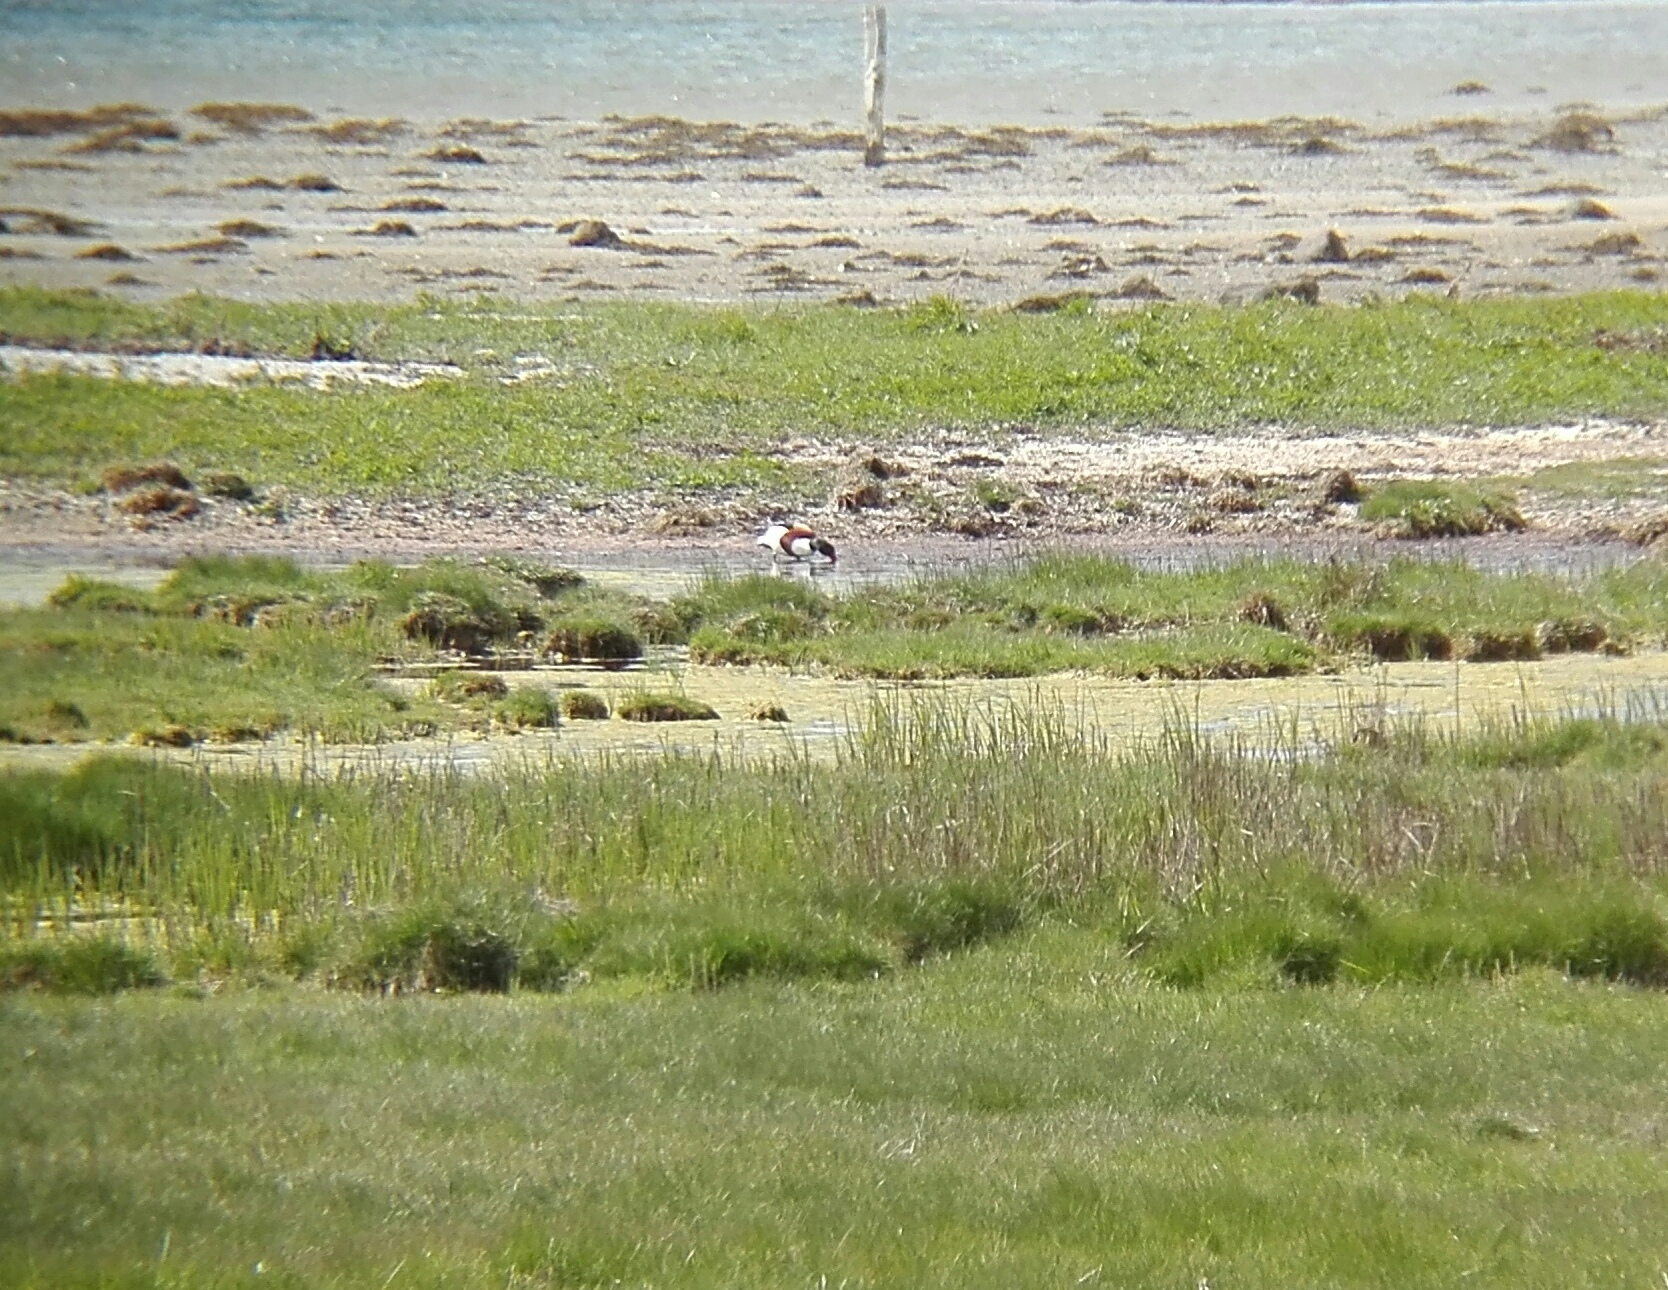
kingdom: Animalia
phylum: Chordata
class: Aves
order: Anseriformes
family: Anatidae
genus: Tadorna
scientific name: Tadorna tadorna
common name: Common shelduck
